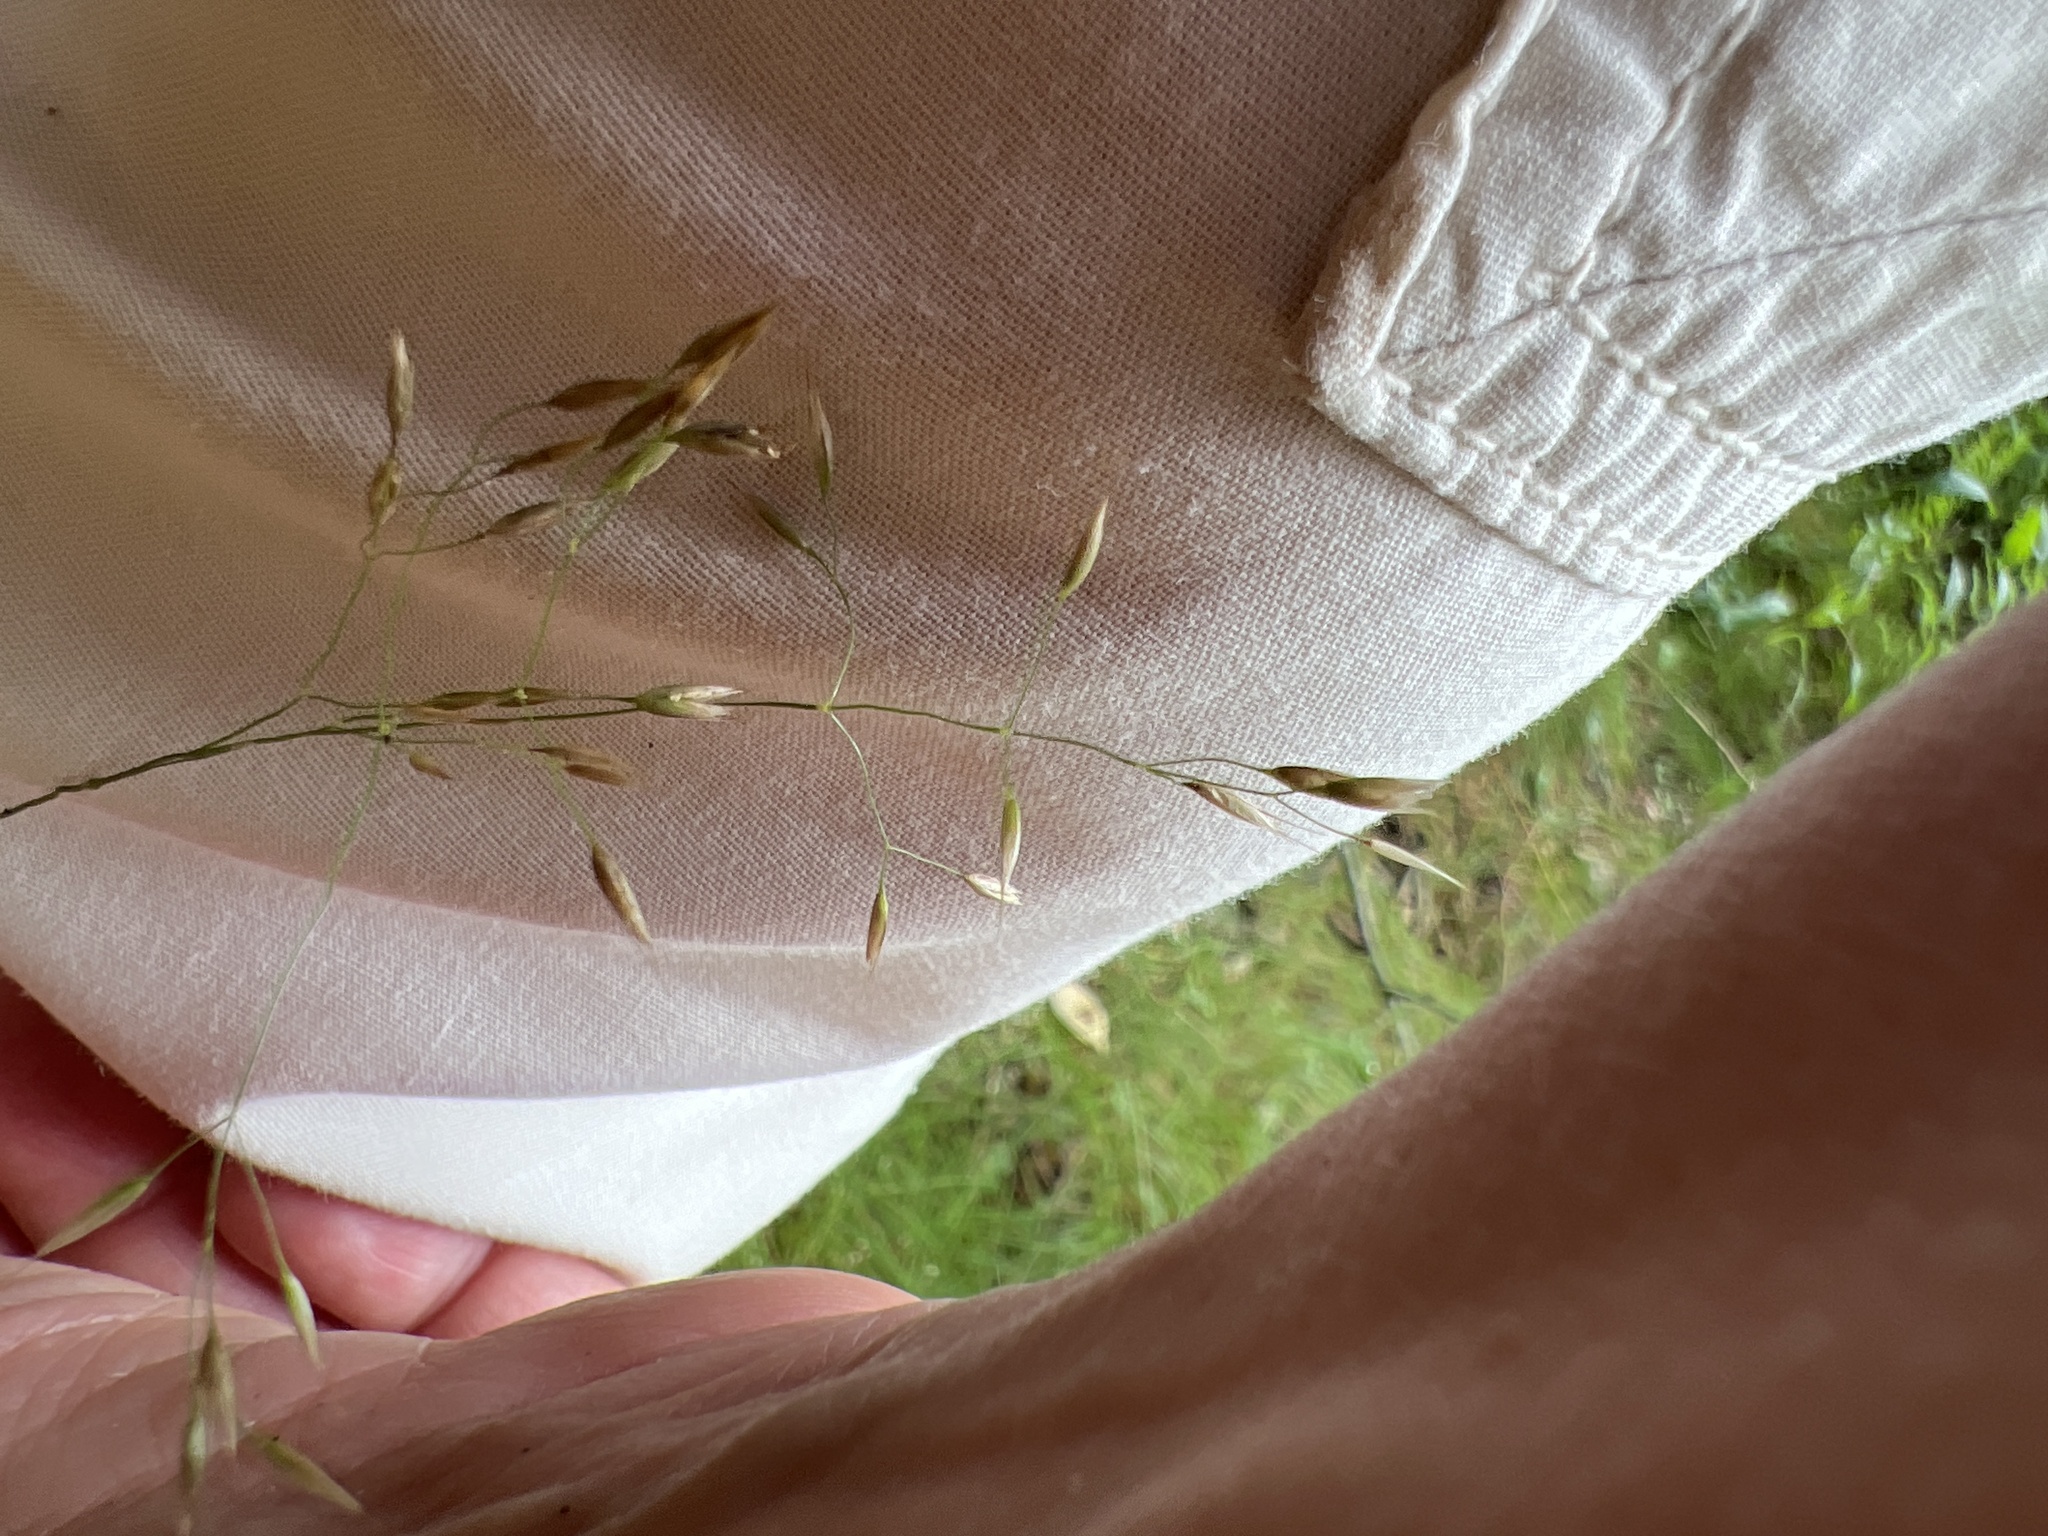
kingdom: Plantae
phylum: Tracheophyta
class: Liliopsida
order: Poales
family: Poaceae
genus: Avenella
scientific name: Avenella flexuosa
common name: Wavy hairgrass
